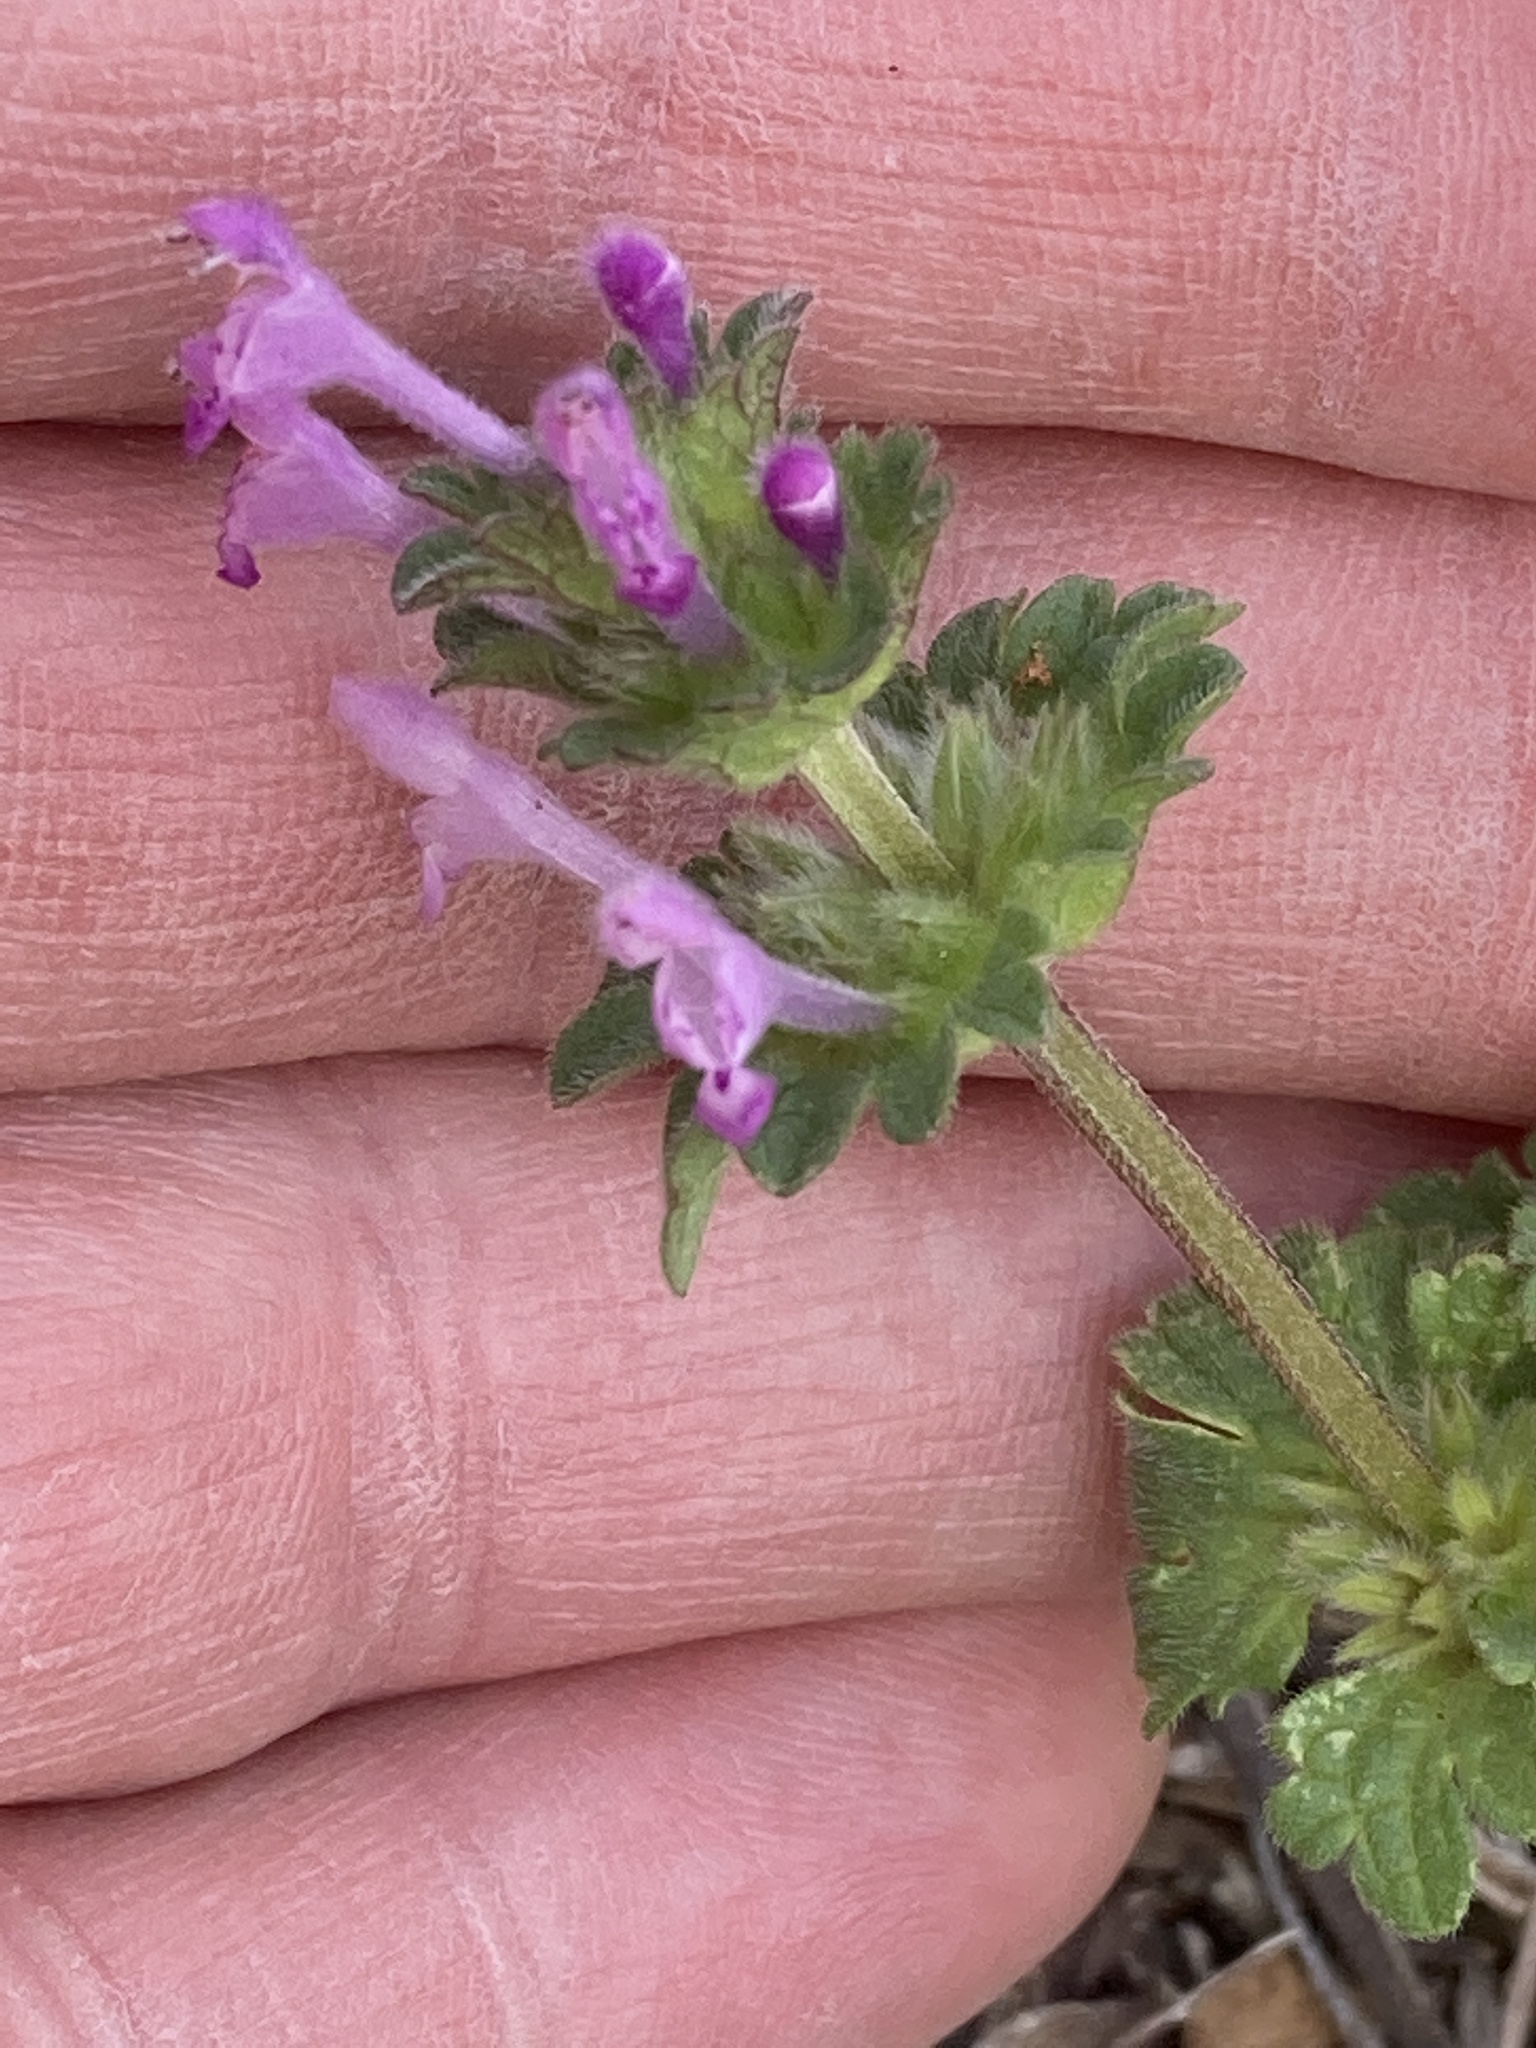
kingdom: Plantae
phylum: Tracheophyta
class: Magnoliopsida
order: Lamiales
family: Lamiaceae
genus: Lamium
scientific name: Lamium amplexicaule
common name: Henbit dead-nettle
